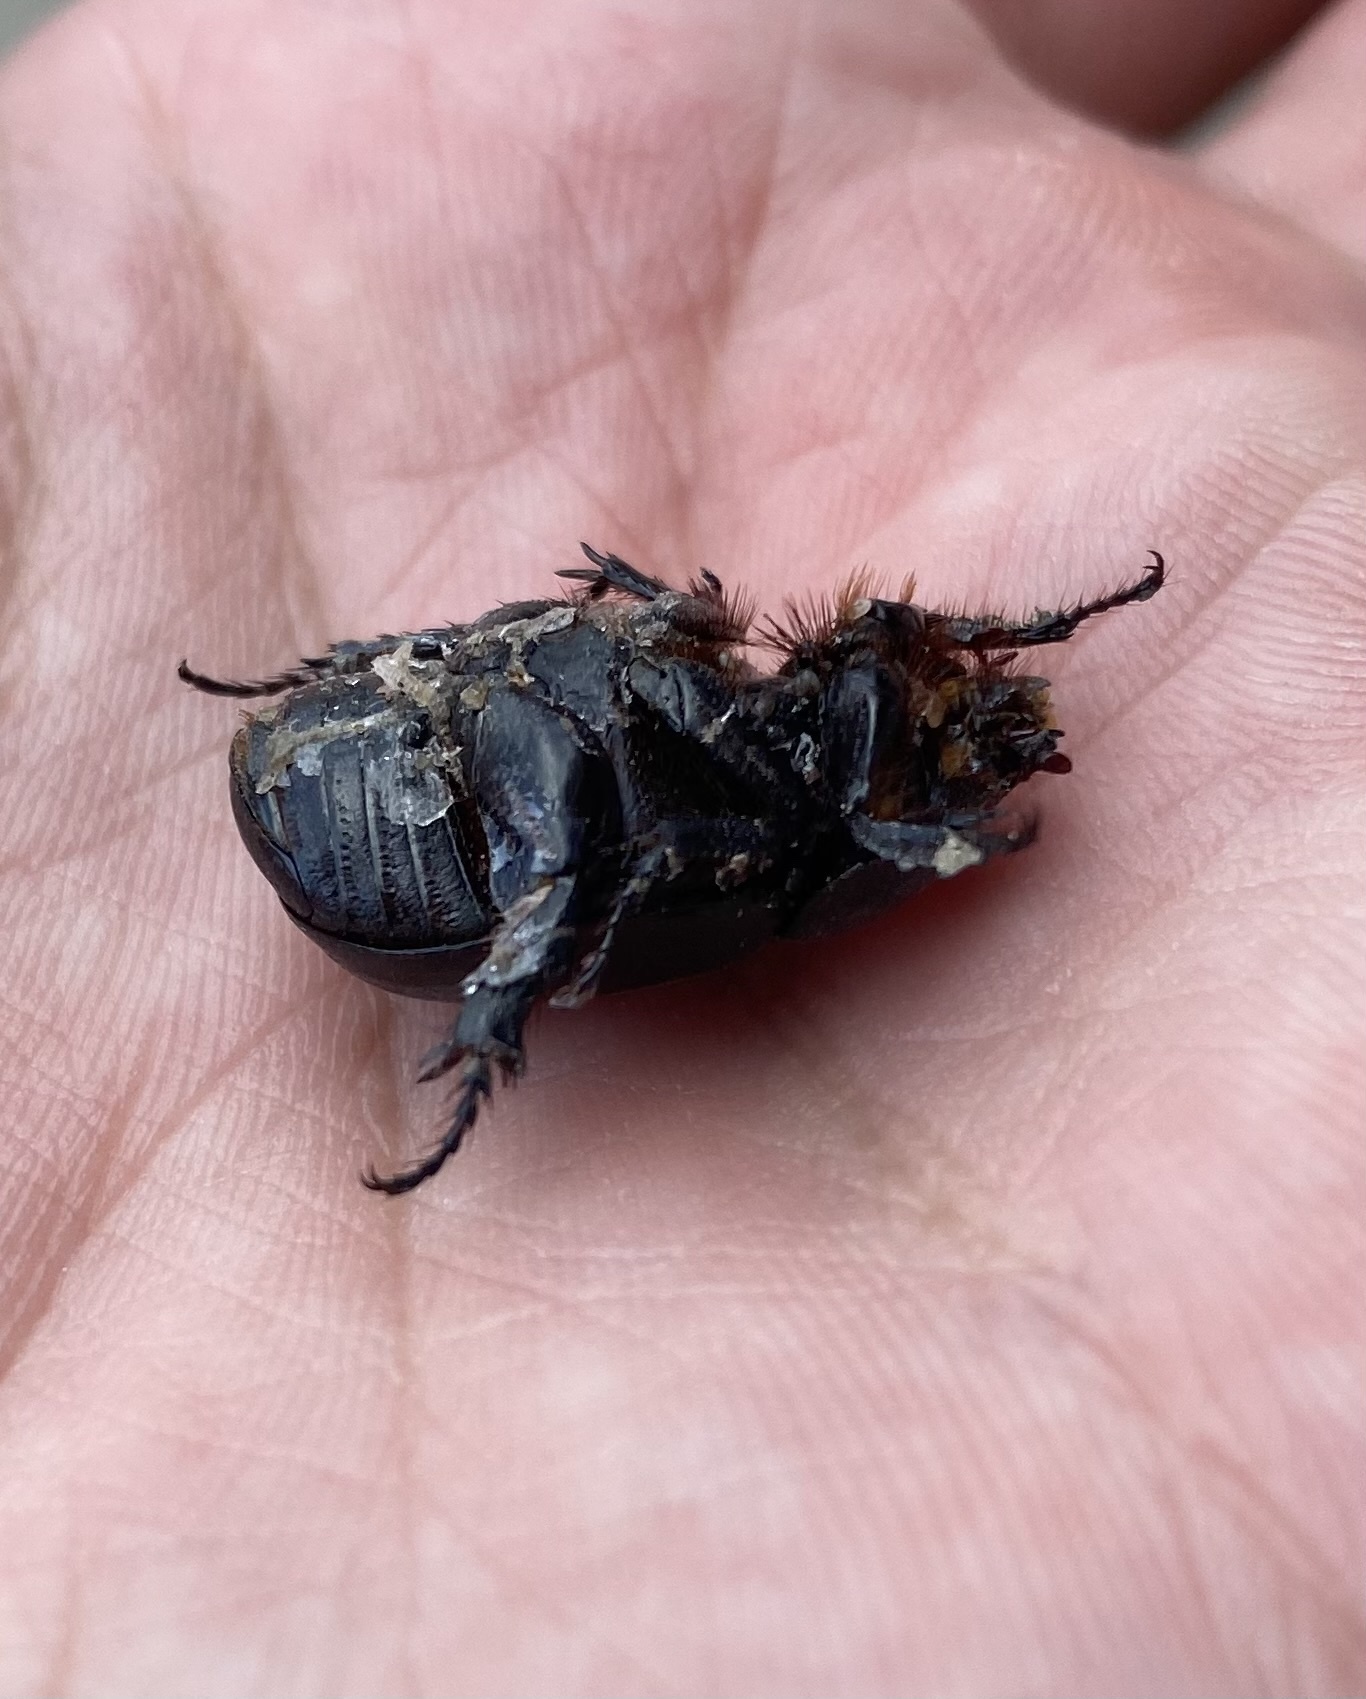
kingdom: Animalia
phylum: Arthropoda
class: Insecta
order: Coleoptera
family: Scarabaeidae
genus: Pentodon
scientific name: Pentodon idiota
